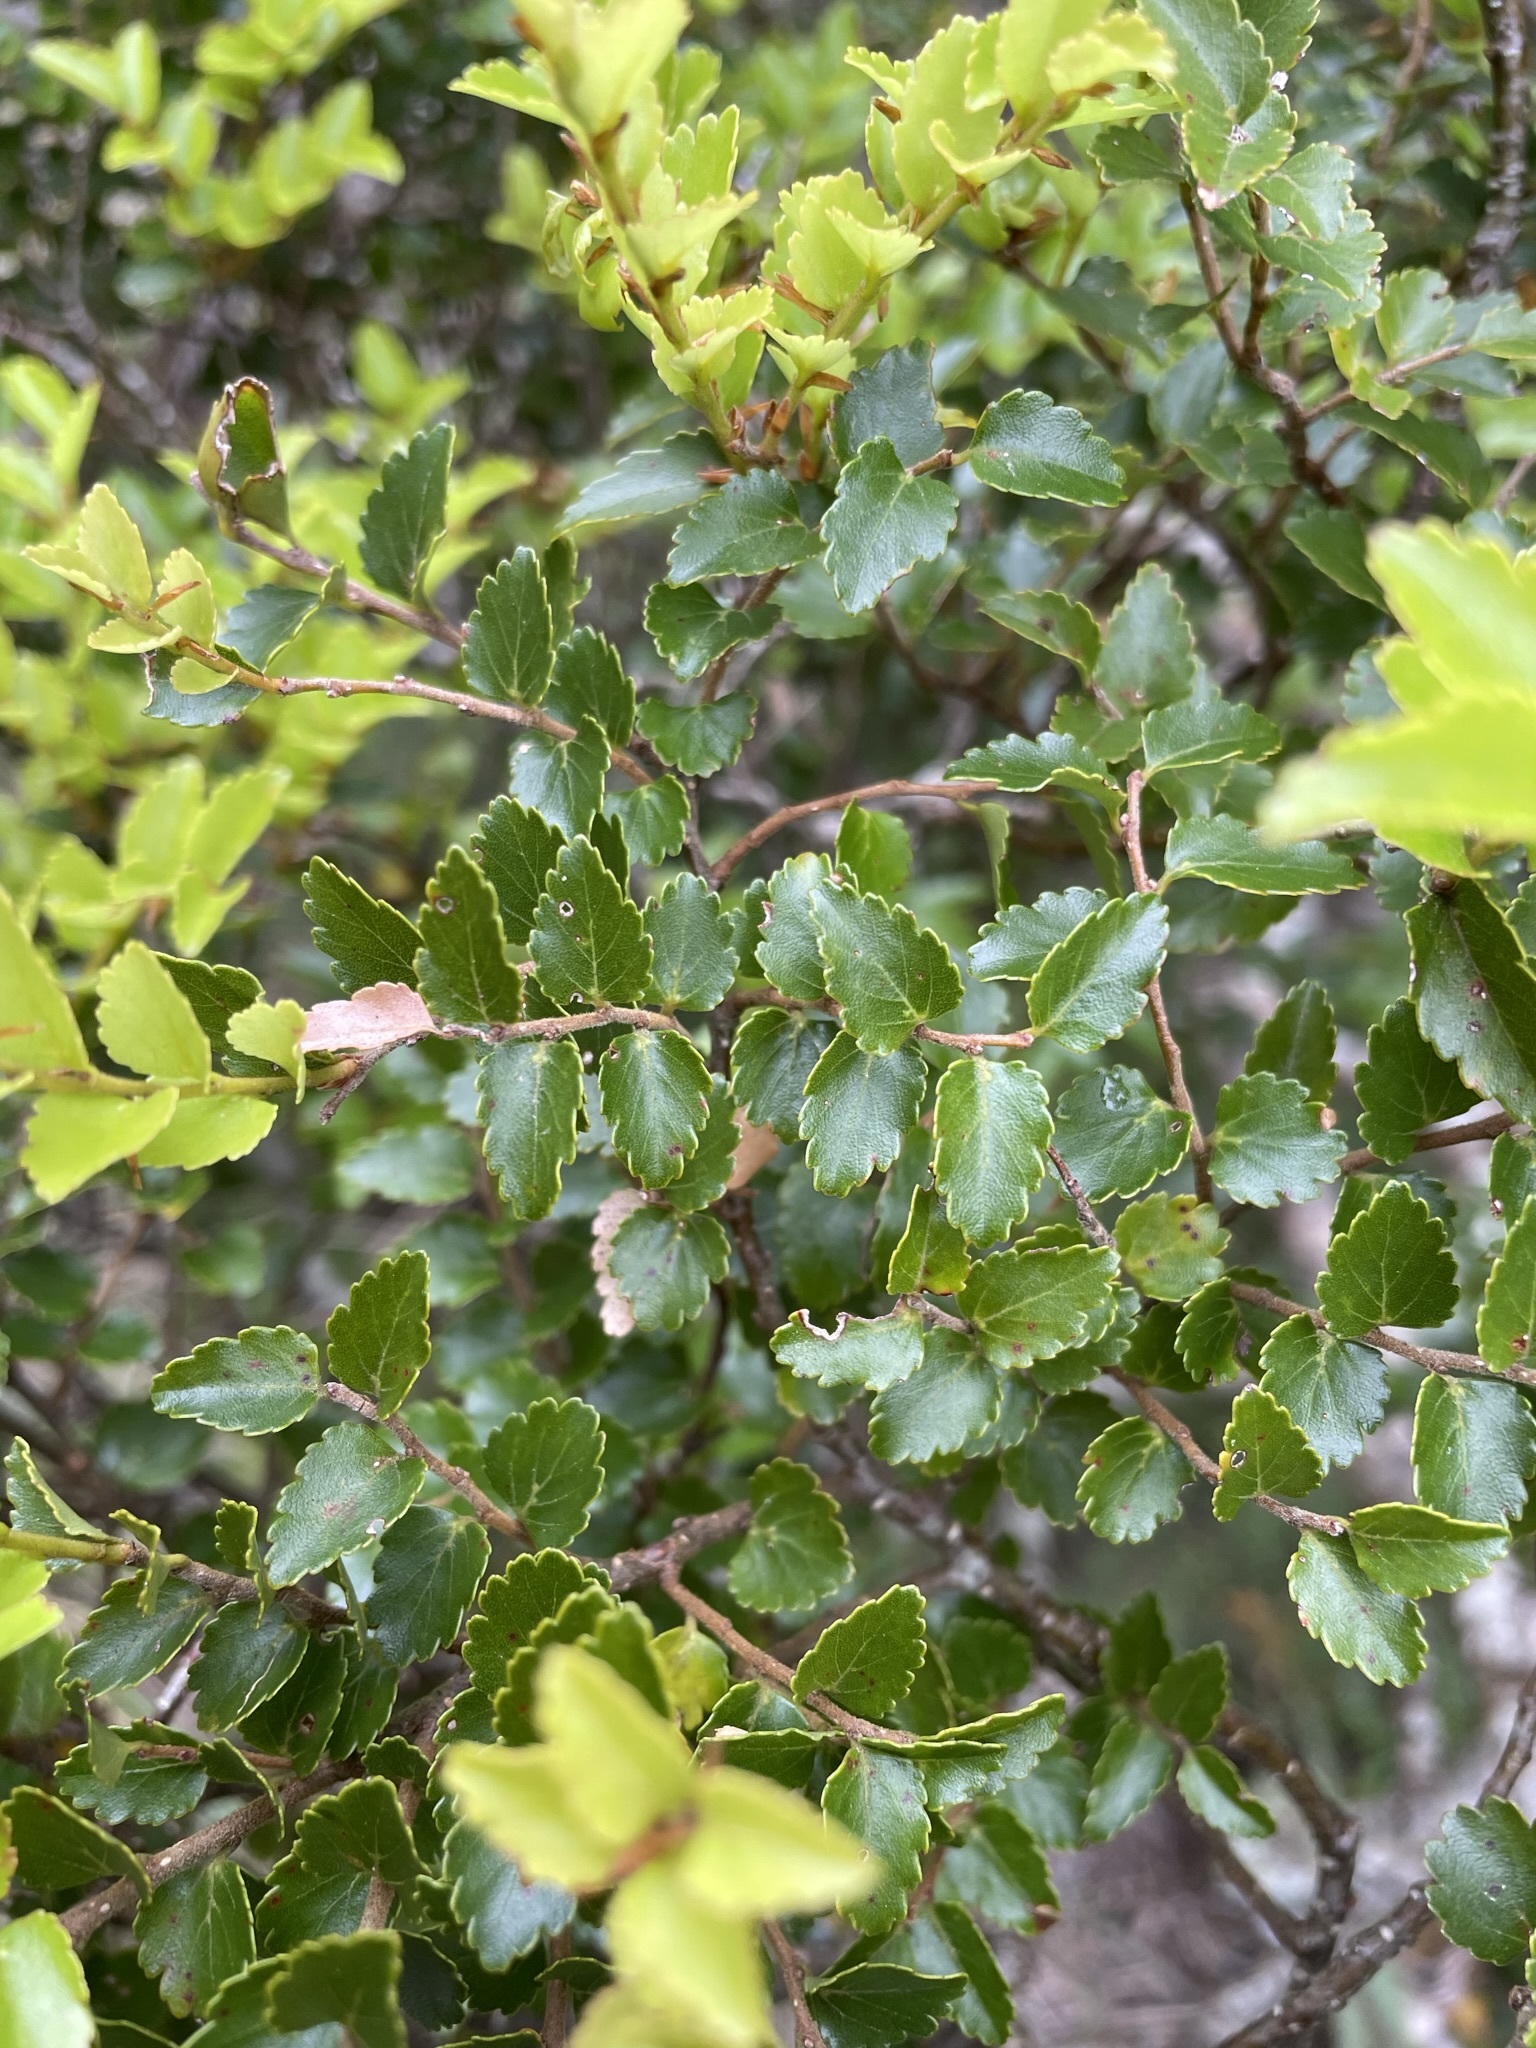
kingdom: Plantae
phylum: Tracheophyta
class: Magnoliopsida
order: Fagales
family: Nothofagaceae
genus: Nothofagus
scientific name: Nothofagus cliffortioides
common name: Mountain beech
